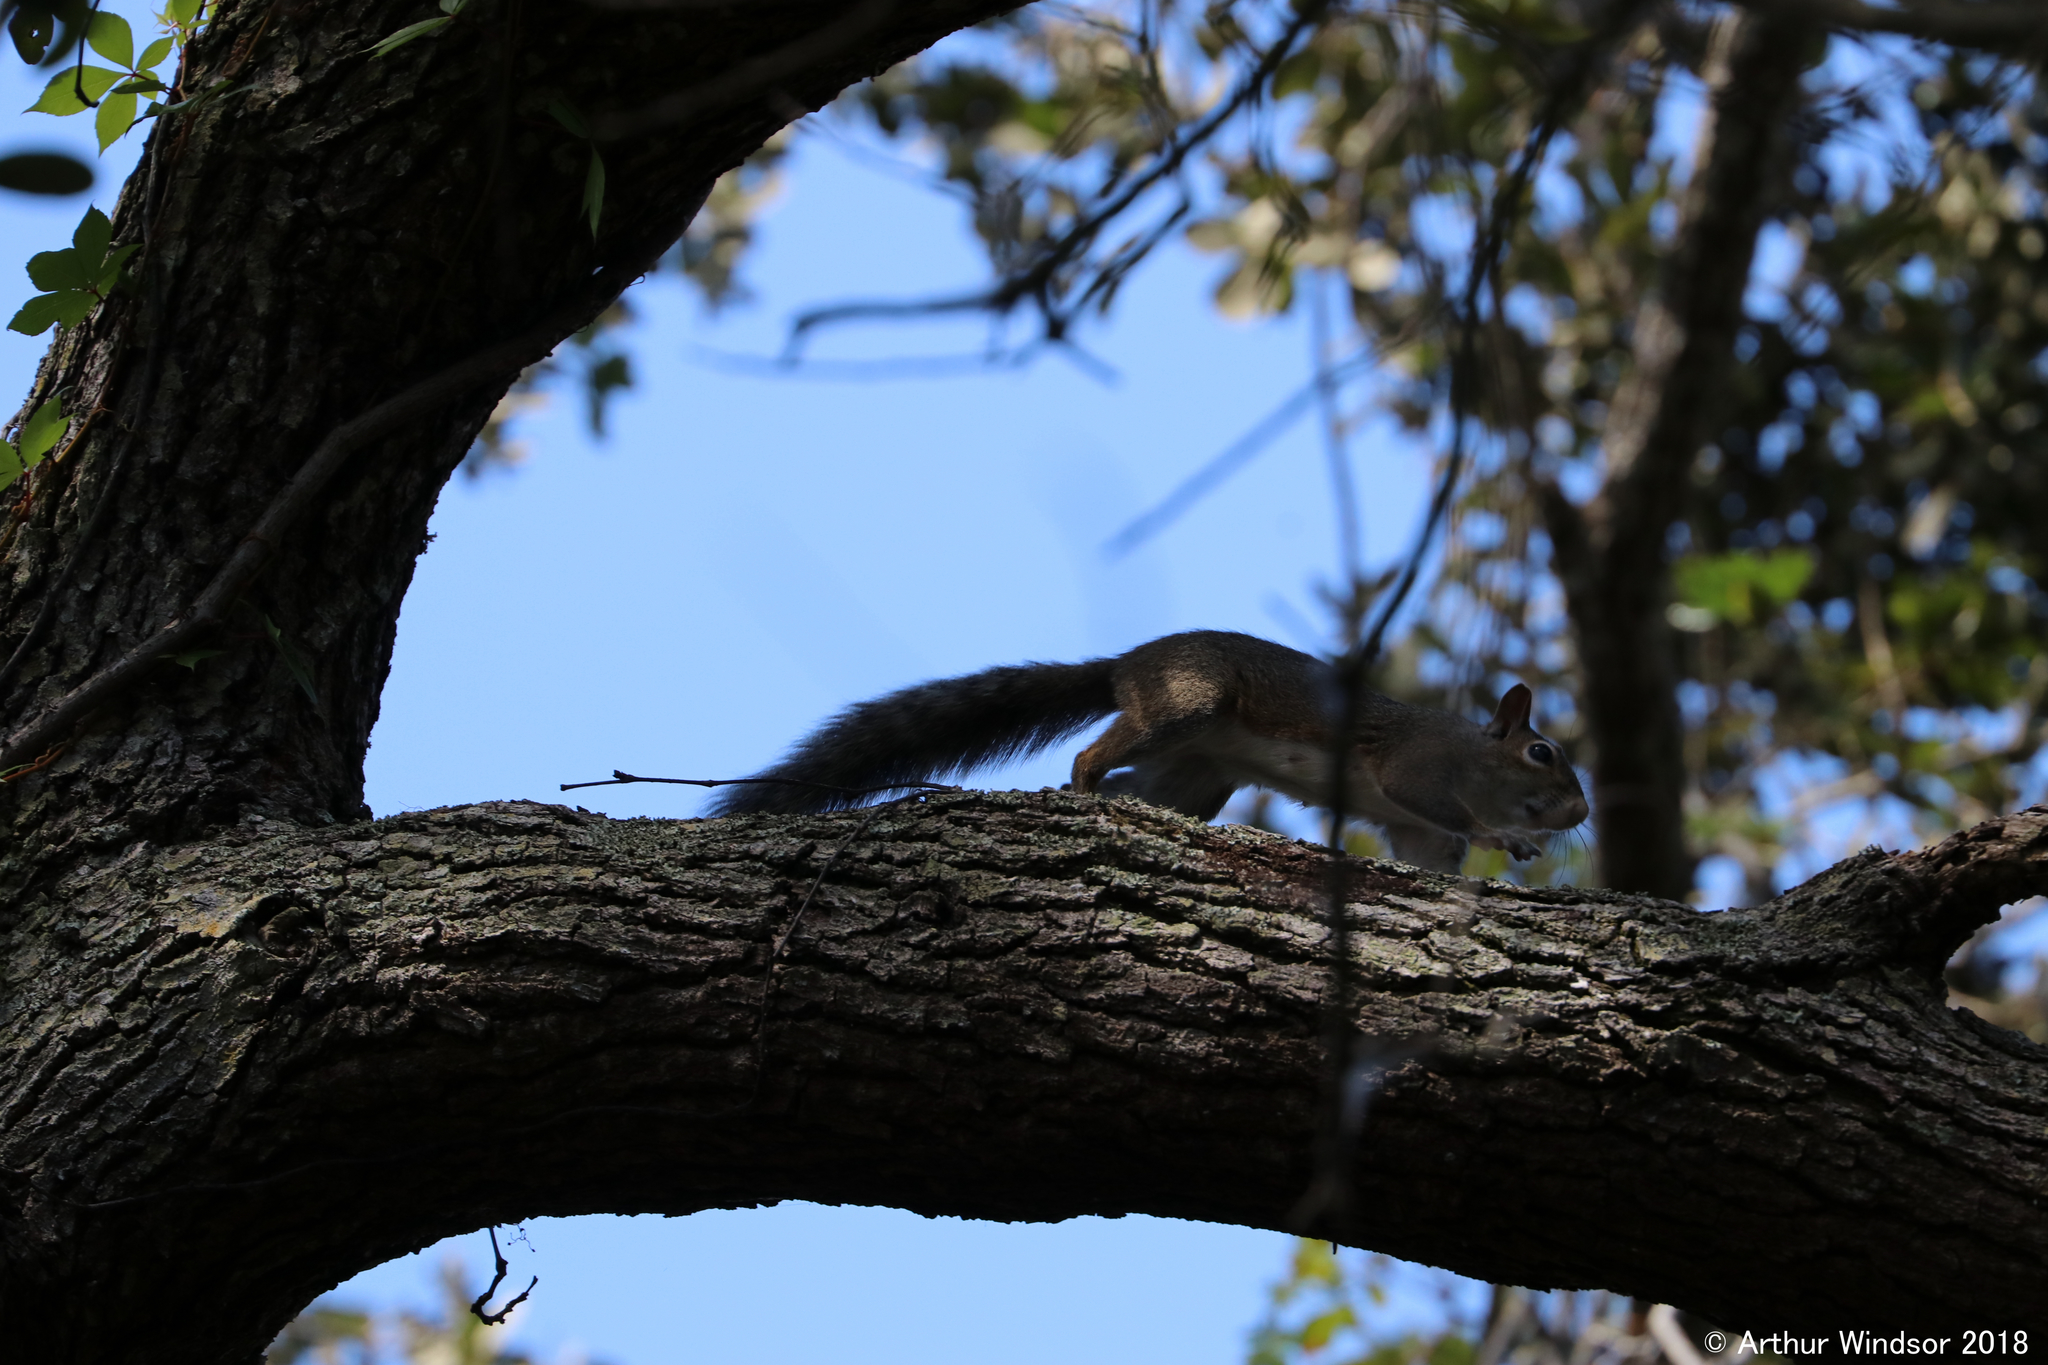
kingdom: Animalia
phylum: Chordata
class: Mammalia
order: Rodentia
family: Sciuridae
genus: Sciurus
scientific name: Sciurus carolinensis
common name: Eastern gray squirrel
